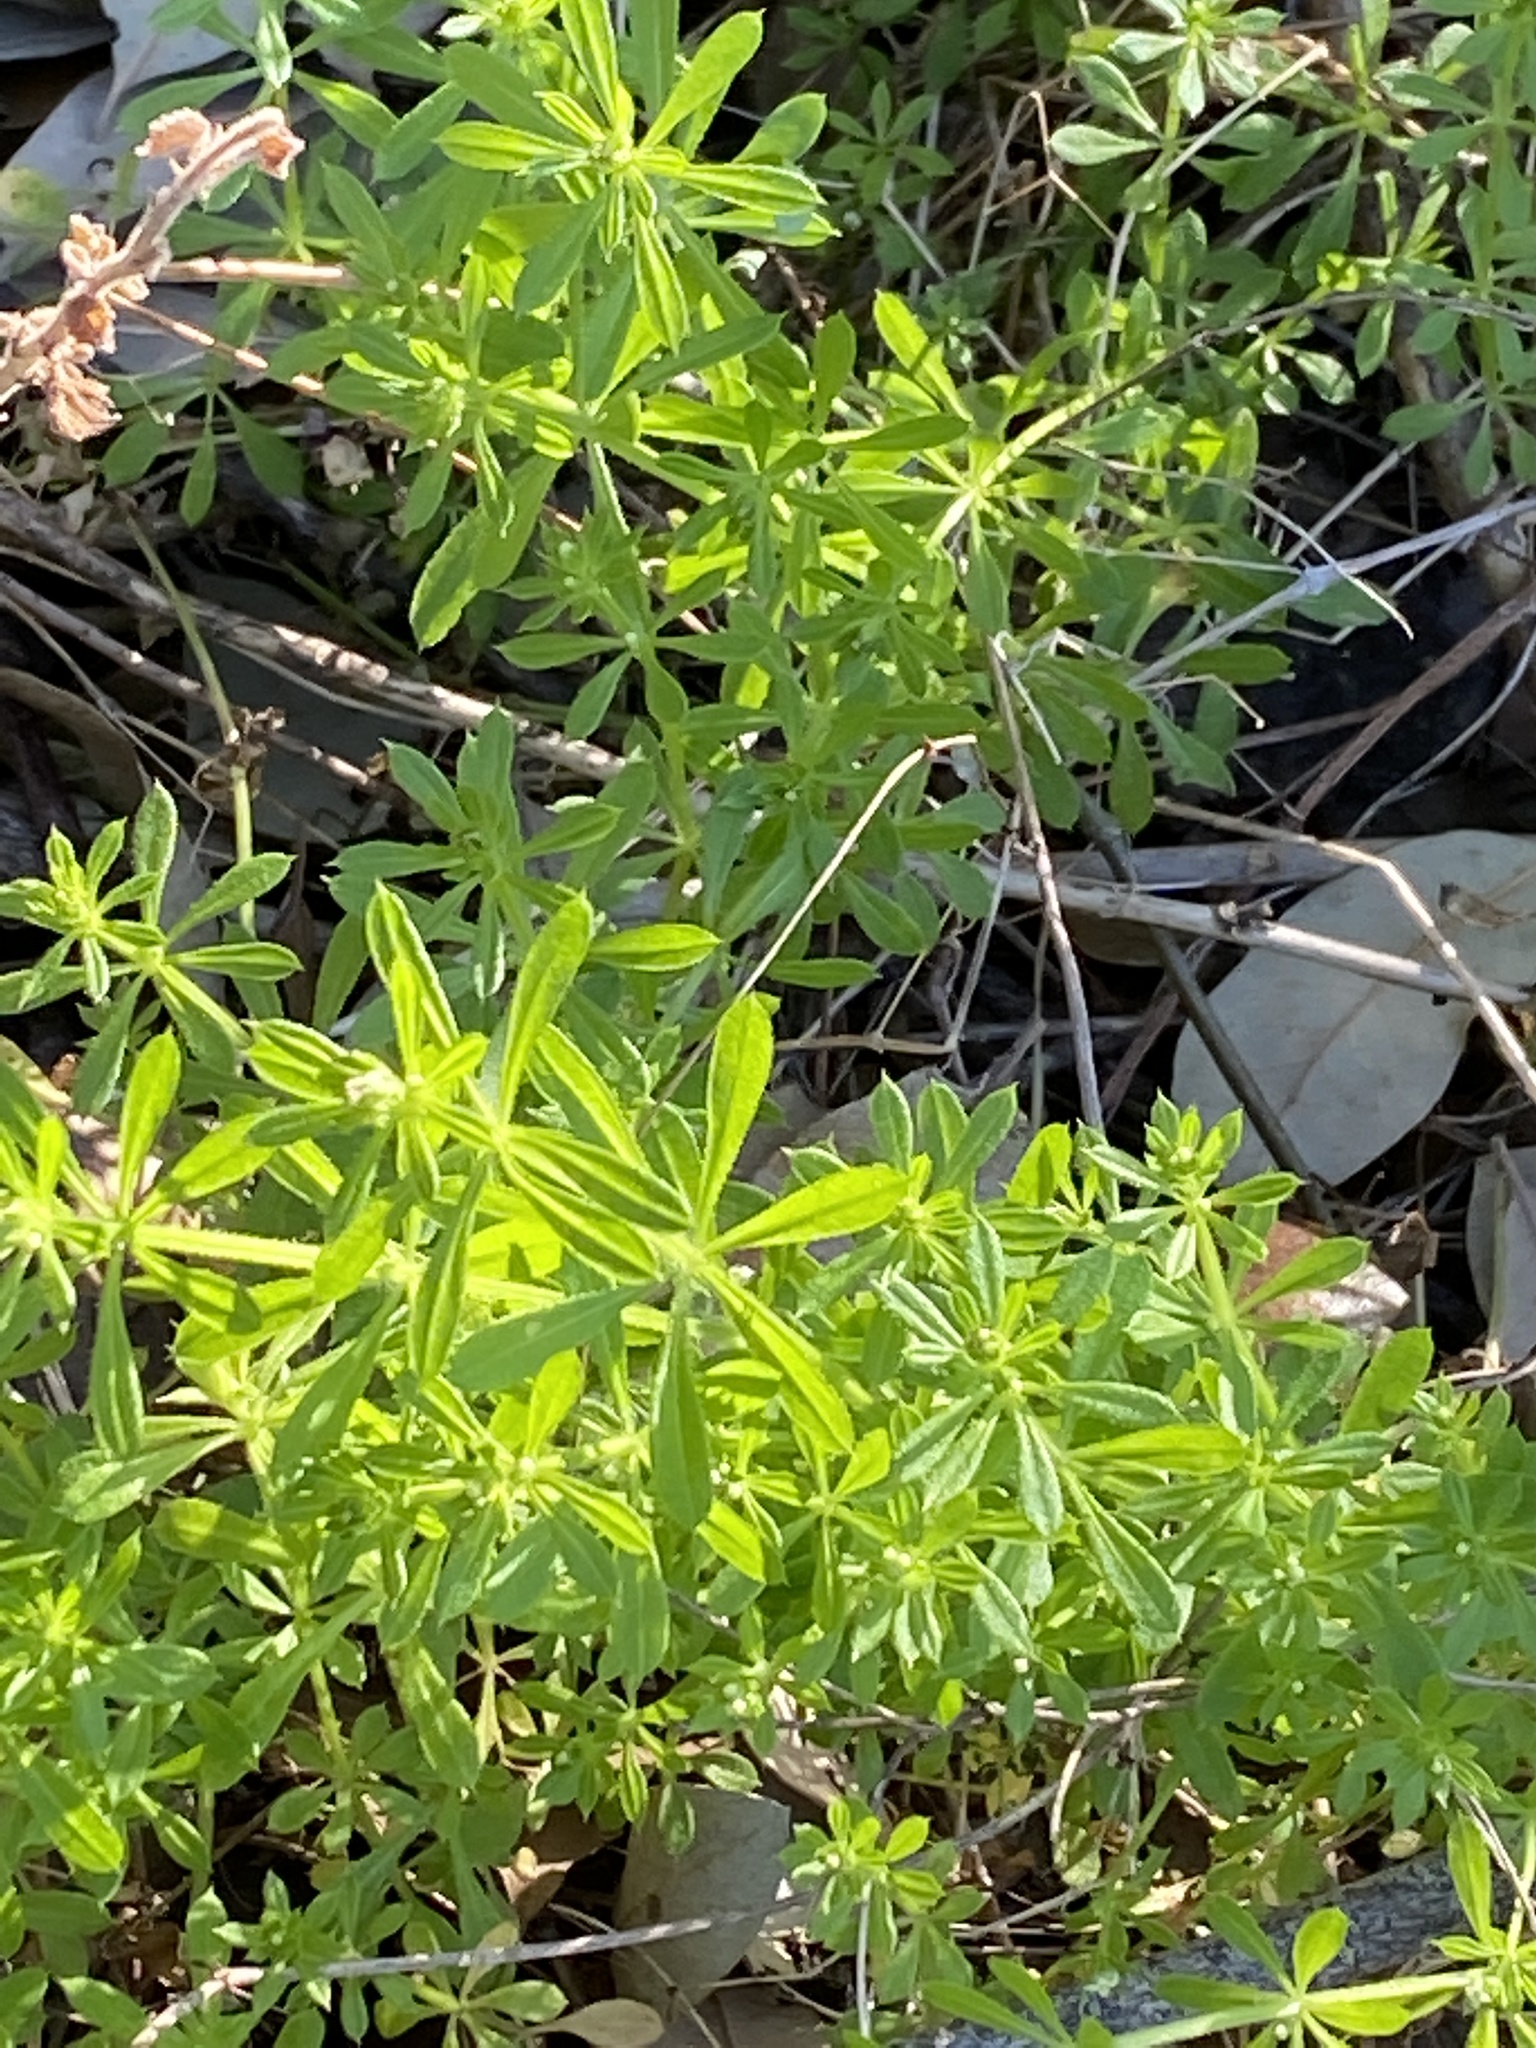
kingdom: Plantae
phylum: Tracheophyta
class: Magnoliopsida
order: Gentianales
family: Rubiaceae
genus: Galium
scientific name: Galium aparine
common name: Cleavers
